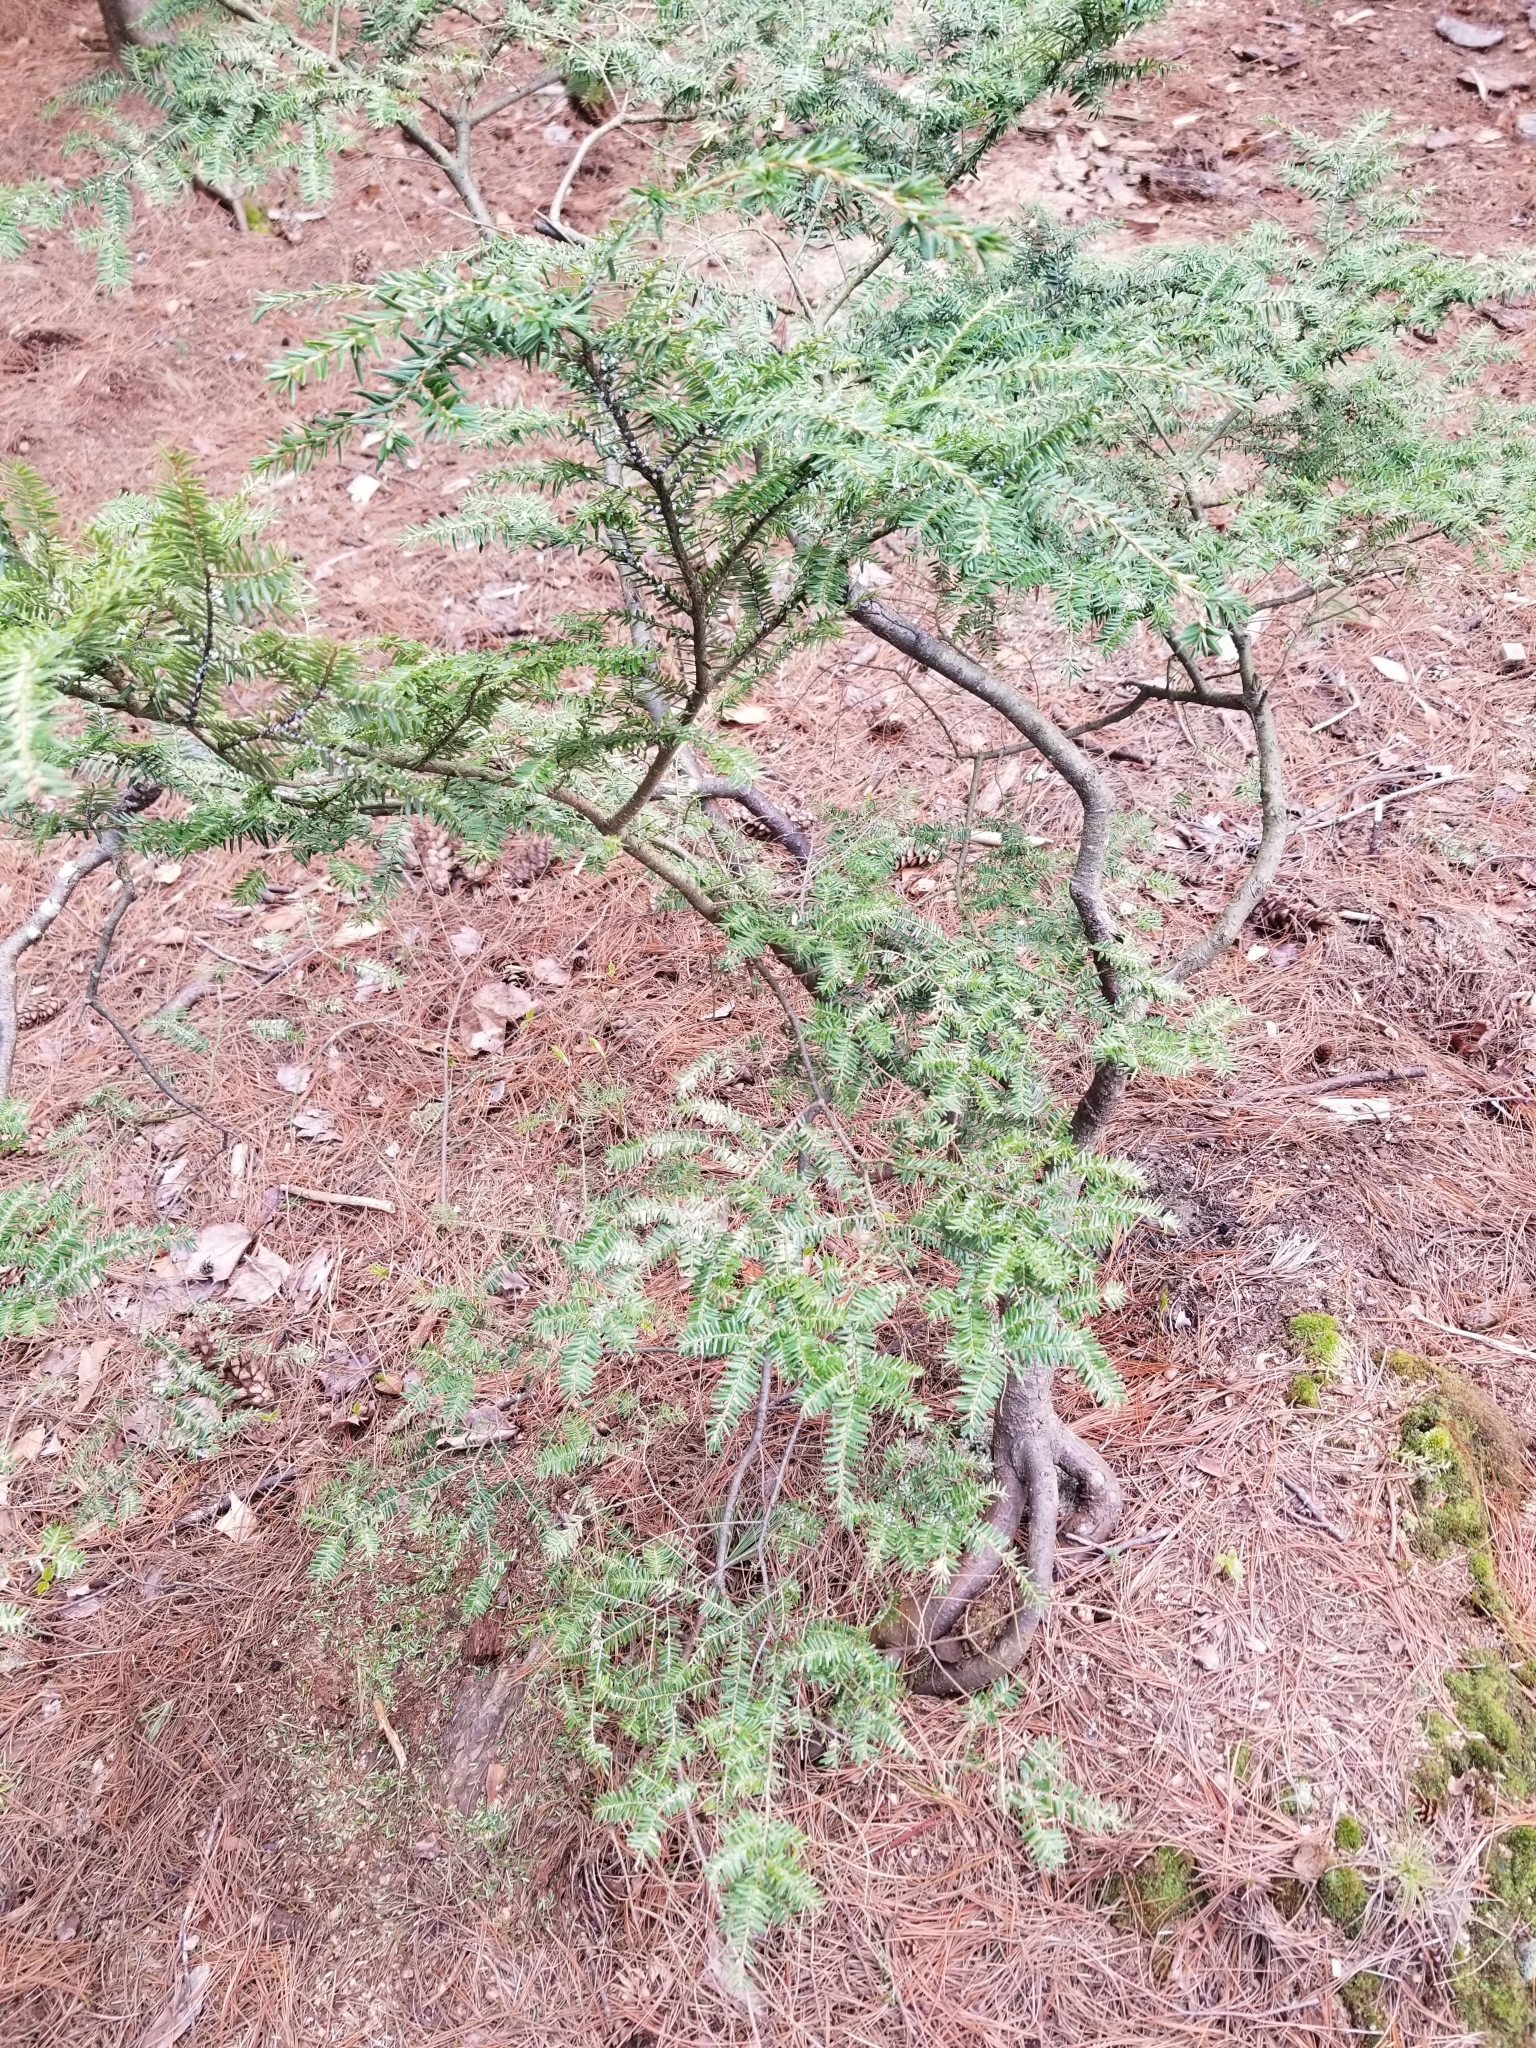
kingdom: Animalia
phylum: Arthropoda
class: Insecta
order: Hemiptera
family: Adelgidae
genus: Adelges
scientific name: Adelges tsugae
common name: Hemlock woolly adelgid
